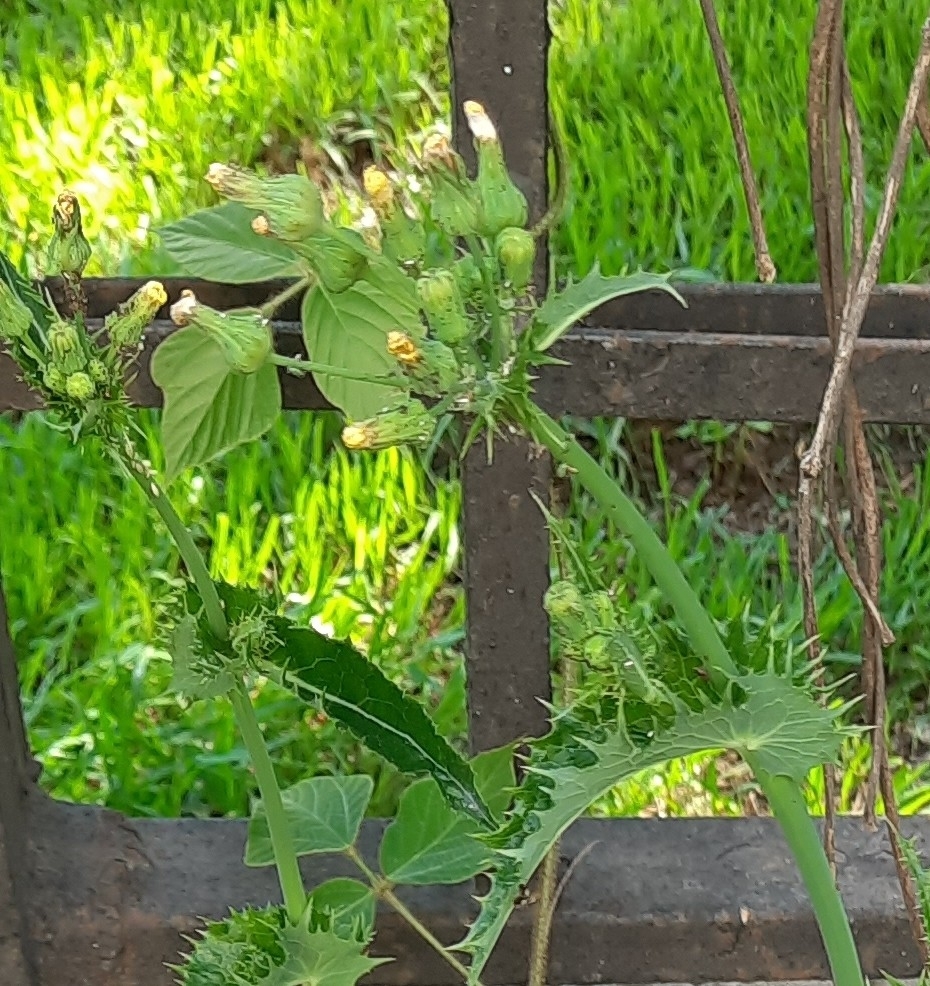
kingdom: Plantae
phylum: Tracheophyta
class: Magnoliopsida
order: Asterales
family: Asteraceae
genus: Sonchus
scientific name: Sonchus asper
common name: Prickly sow-thistle
